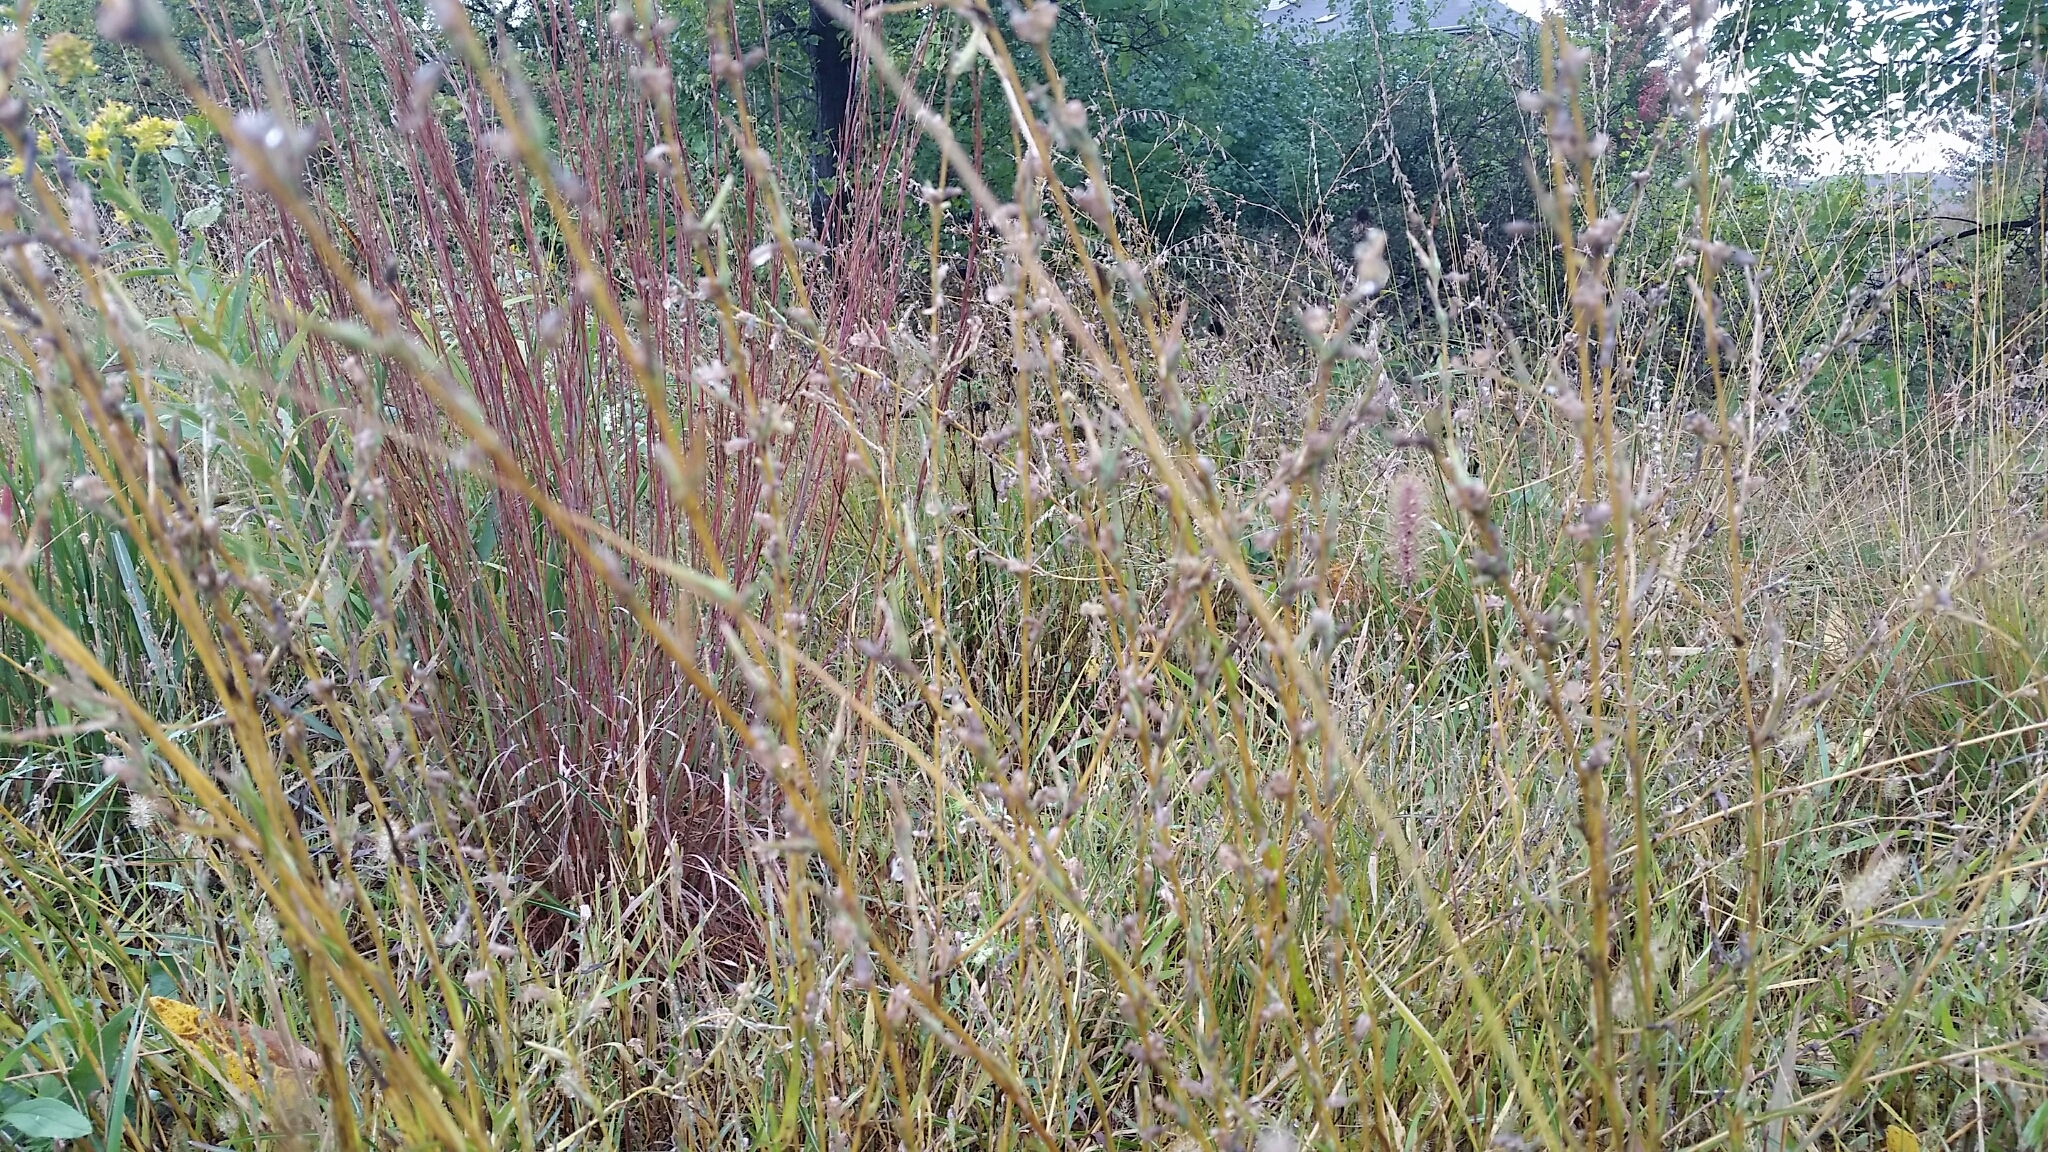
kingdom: Plantae
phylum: Tracheophyta
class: Magnoliopsida
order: Asterales
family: Asteraceae
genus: Lactuca
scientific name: Lactuca saligna
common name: Wild lettuce
